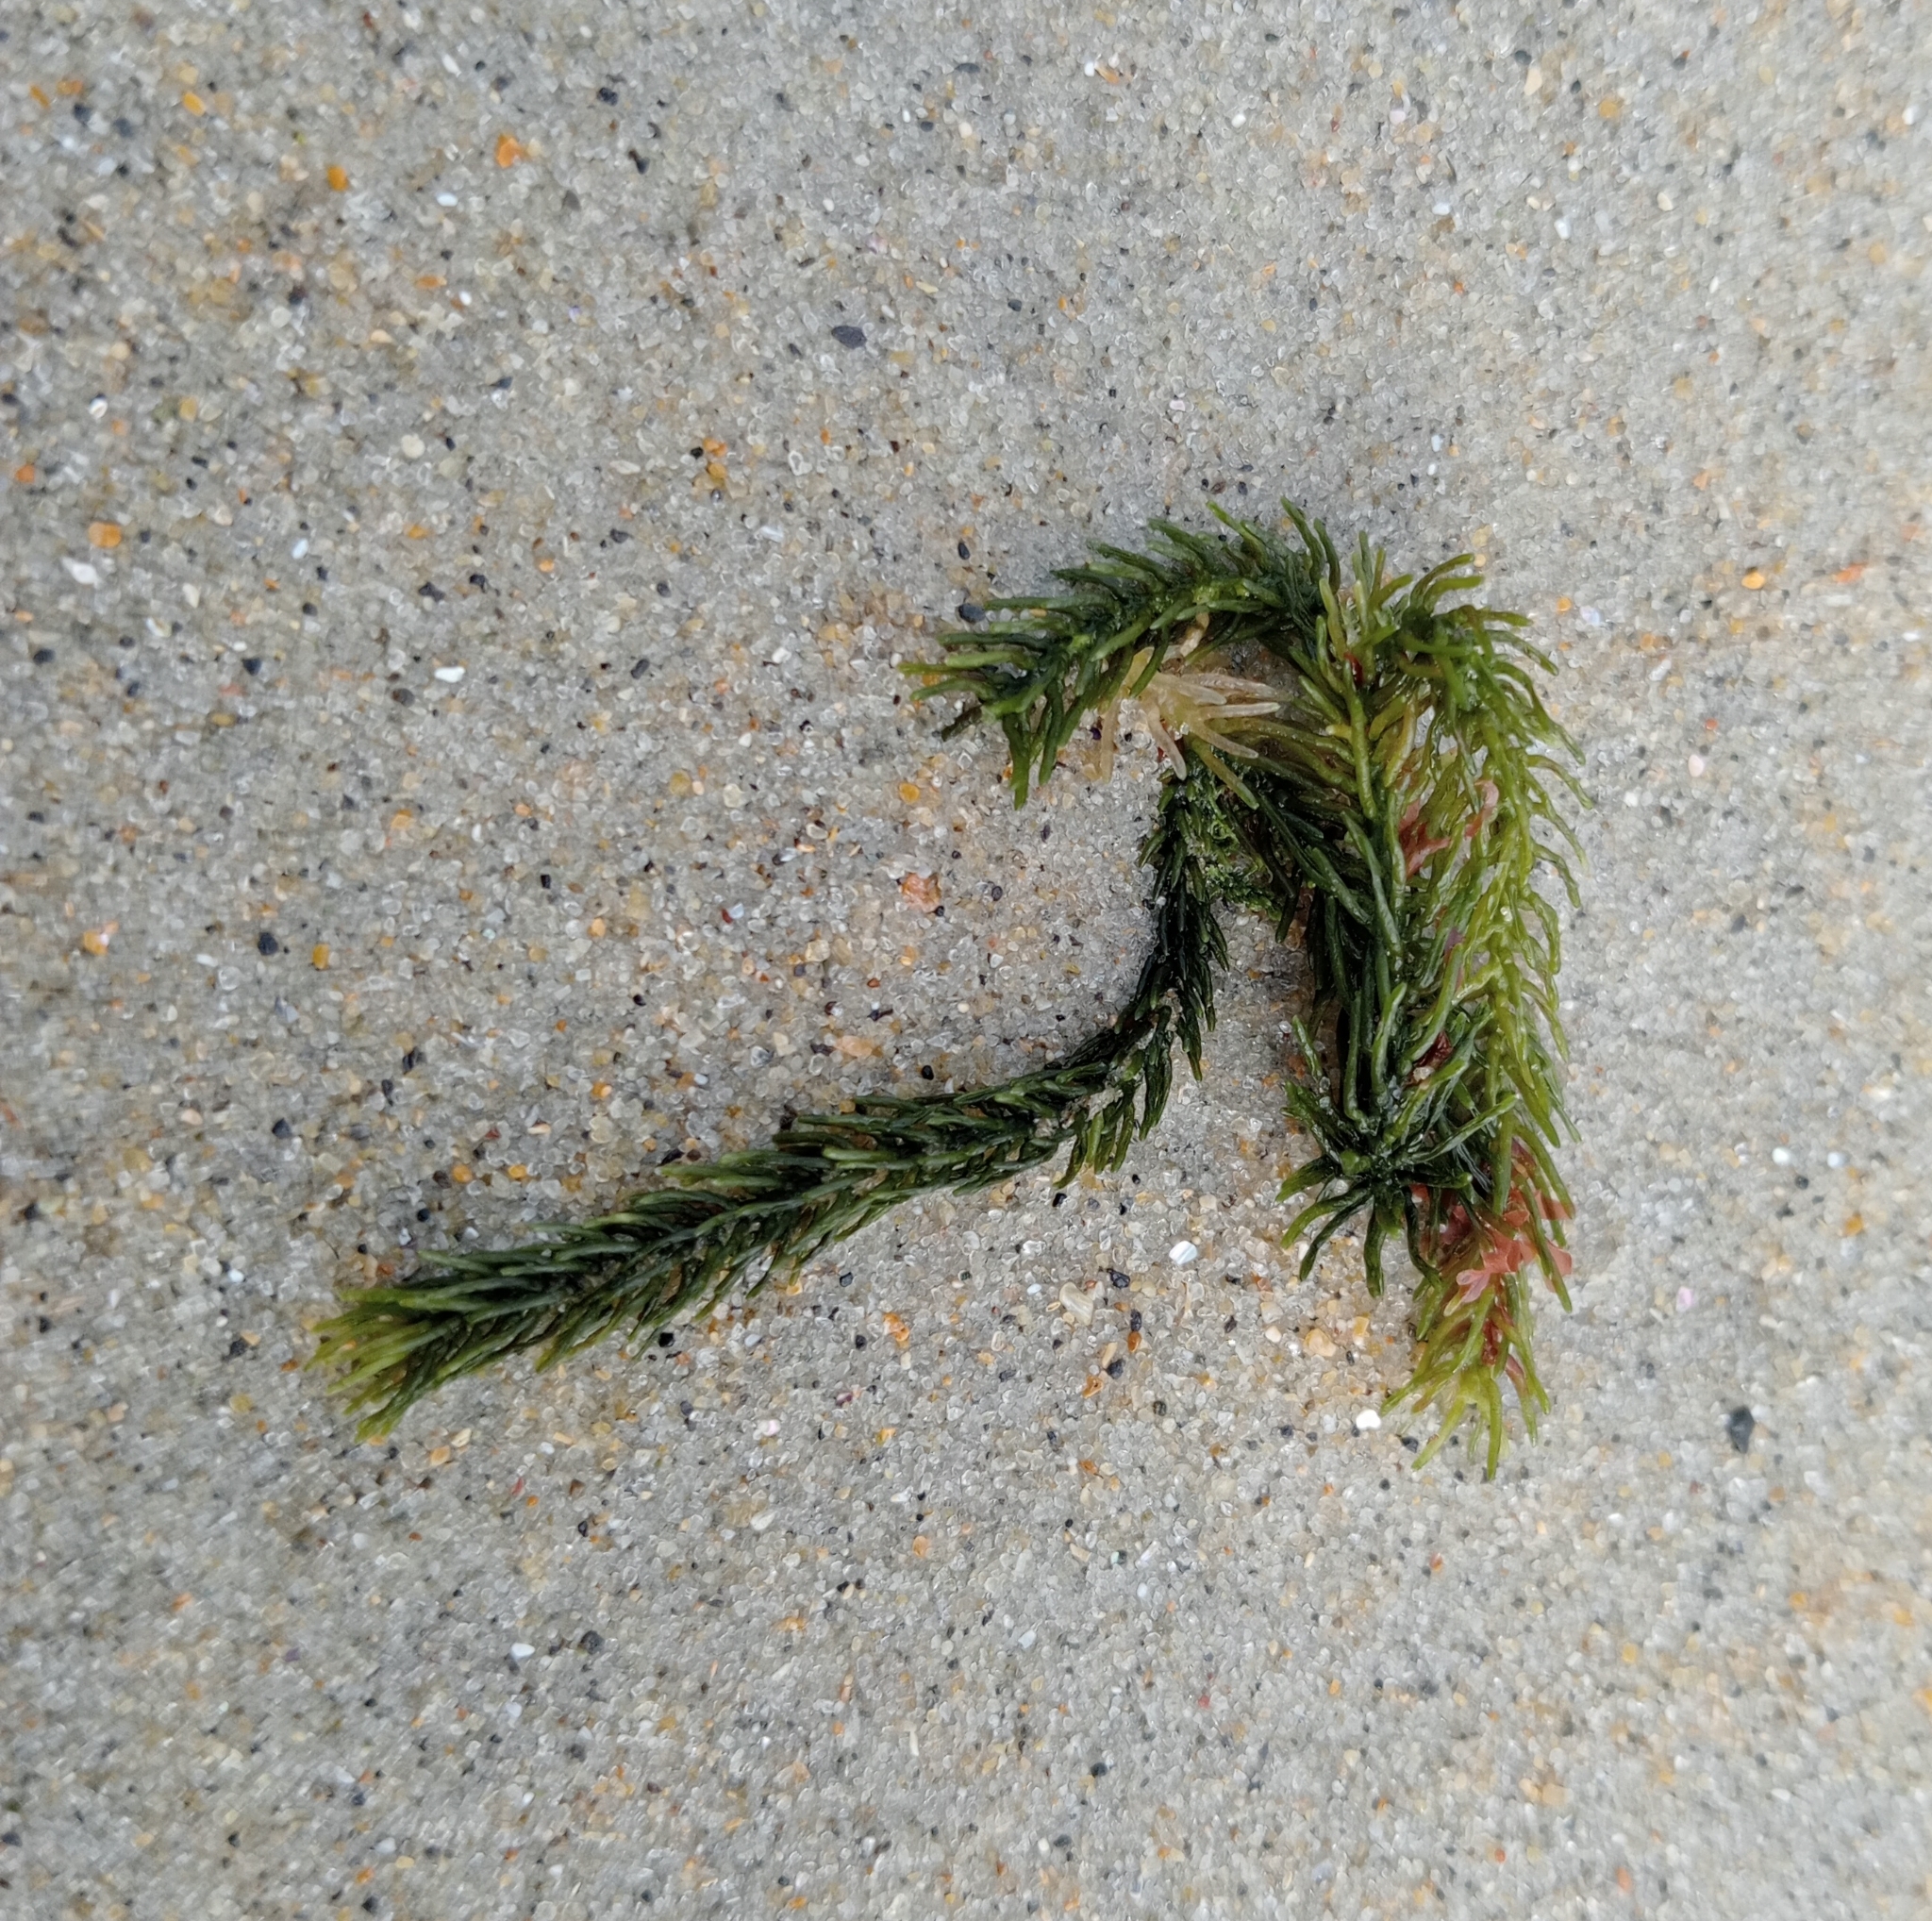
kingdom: Plantae
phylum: Chlorophyta
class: Ulvophyceae
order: Bryopsidales
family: Caulerpaceae
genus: Caulerpa
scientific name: Caulerpa brownii
